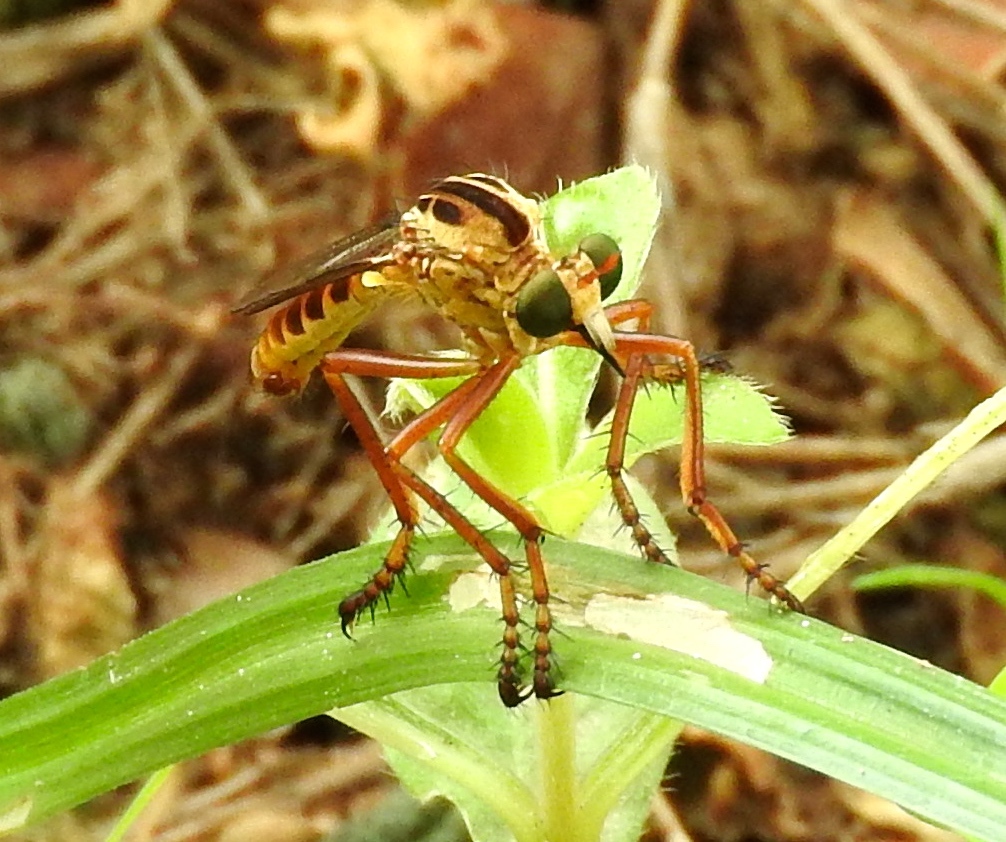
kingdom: Animalia
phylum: Arthropoda
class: Insecta
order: Diptera
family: Asilidae
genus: Diogmites
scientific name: Diogmites angustipennis
